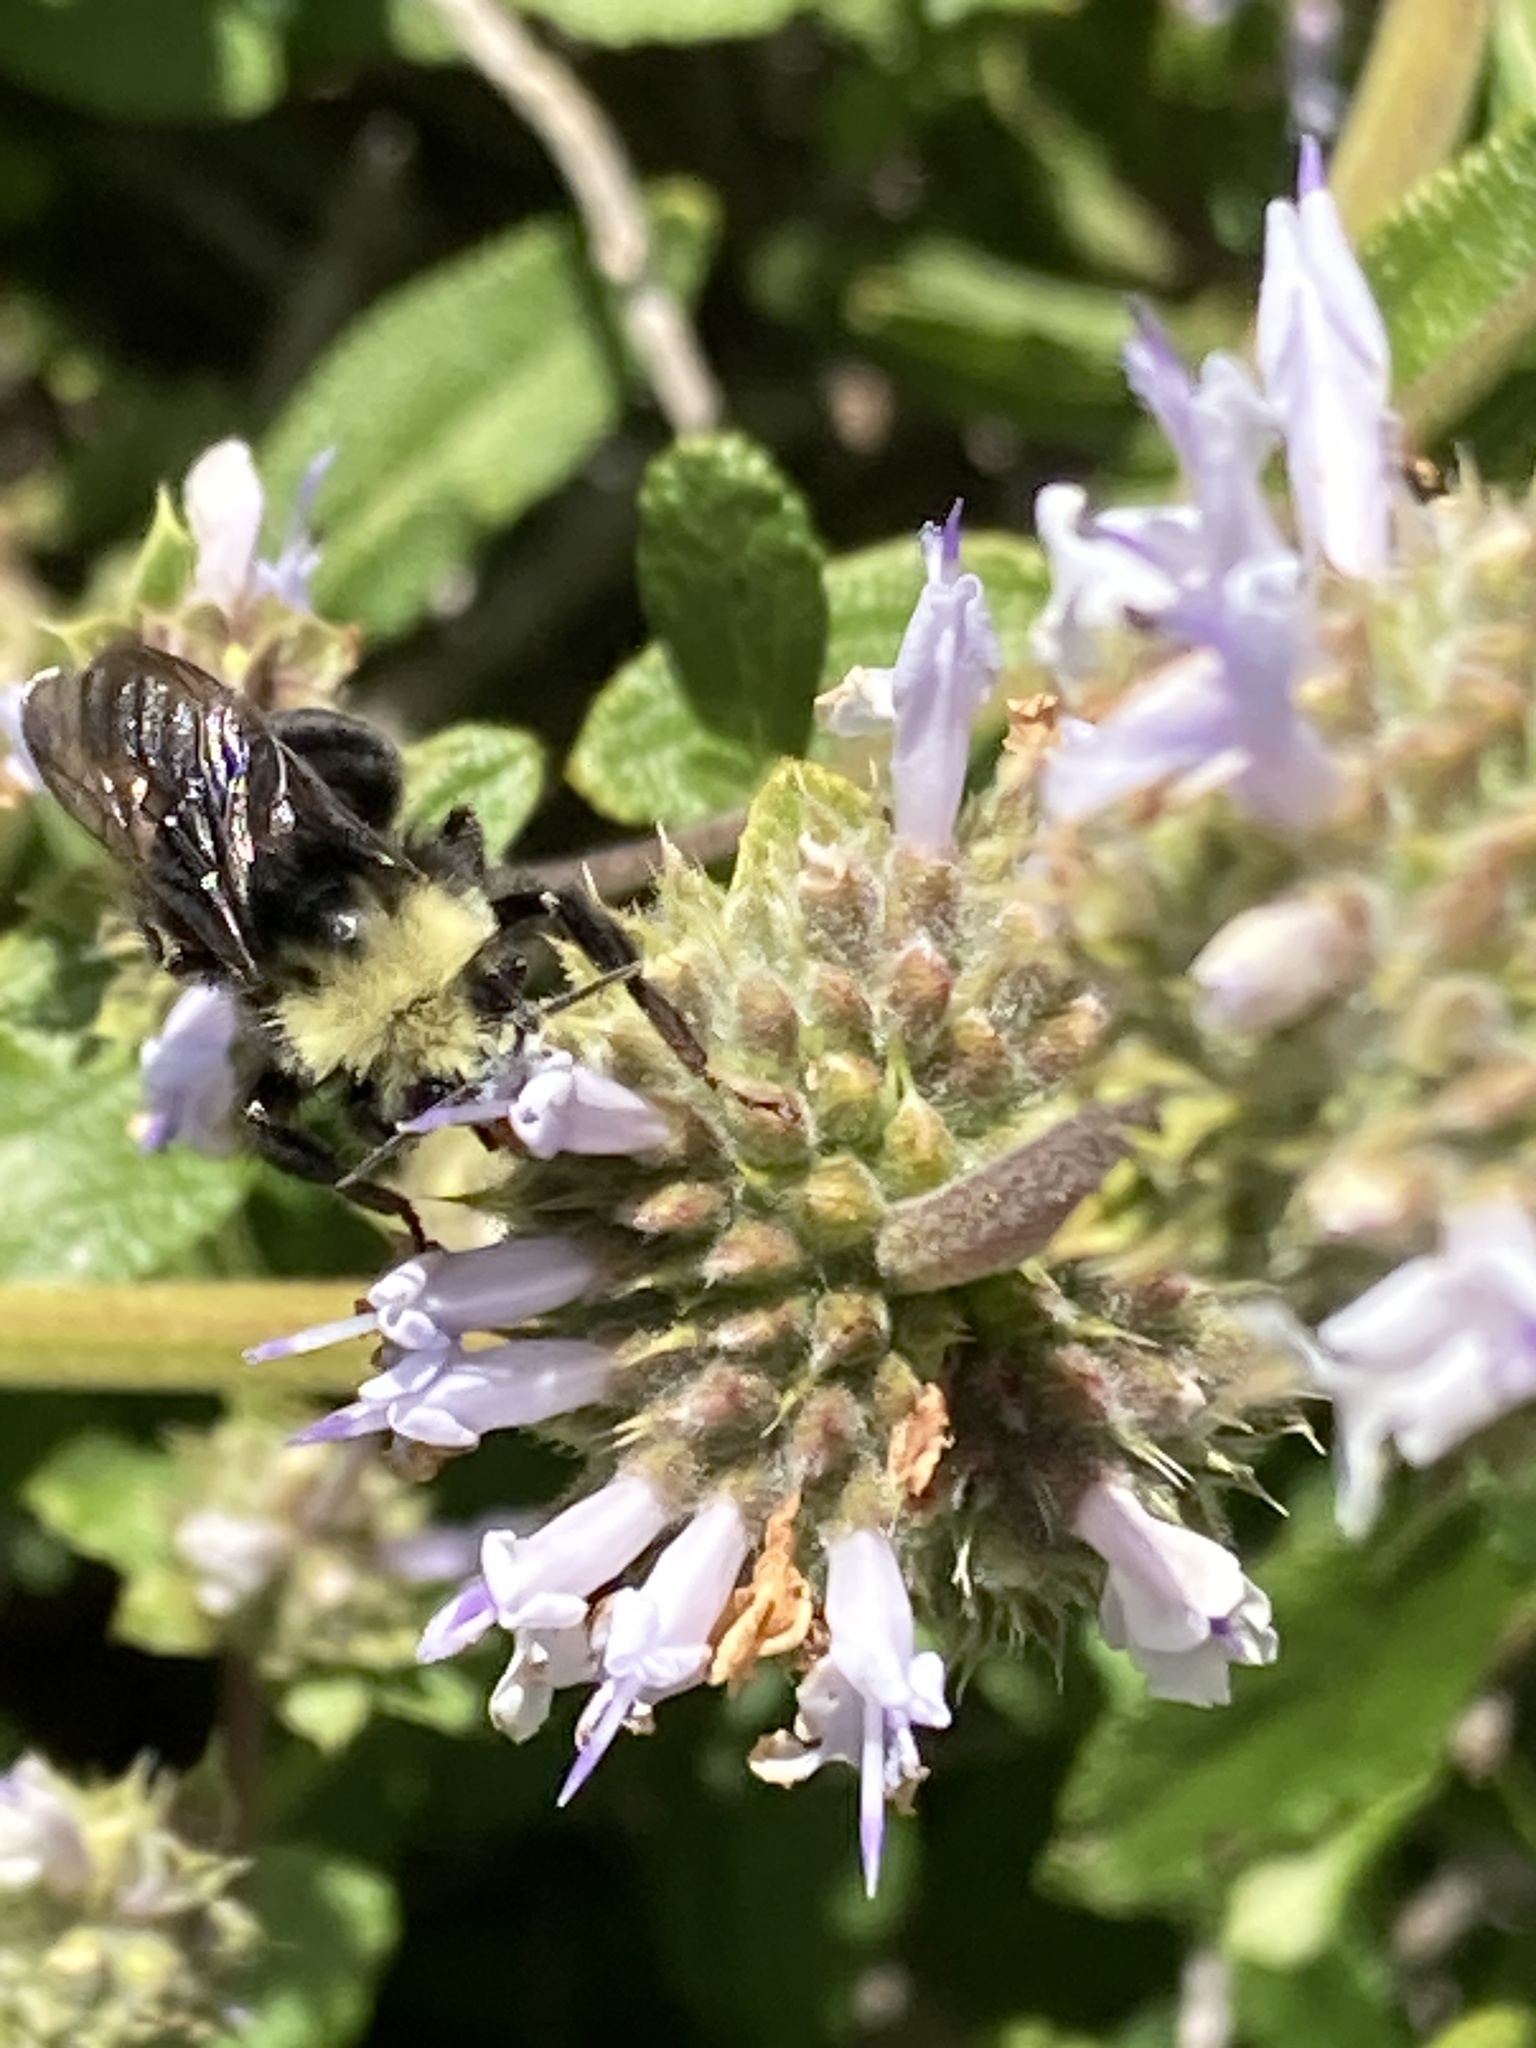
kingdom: Animalia
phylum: Arthropoda
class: Insecta
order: Hymenoptera
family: Apidae
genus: Bombus
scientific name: Bombus vosnesenskii
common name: Vosnesensky bumble bee
